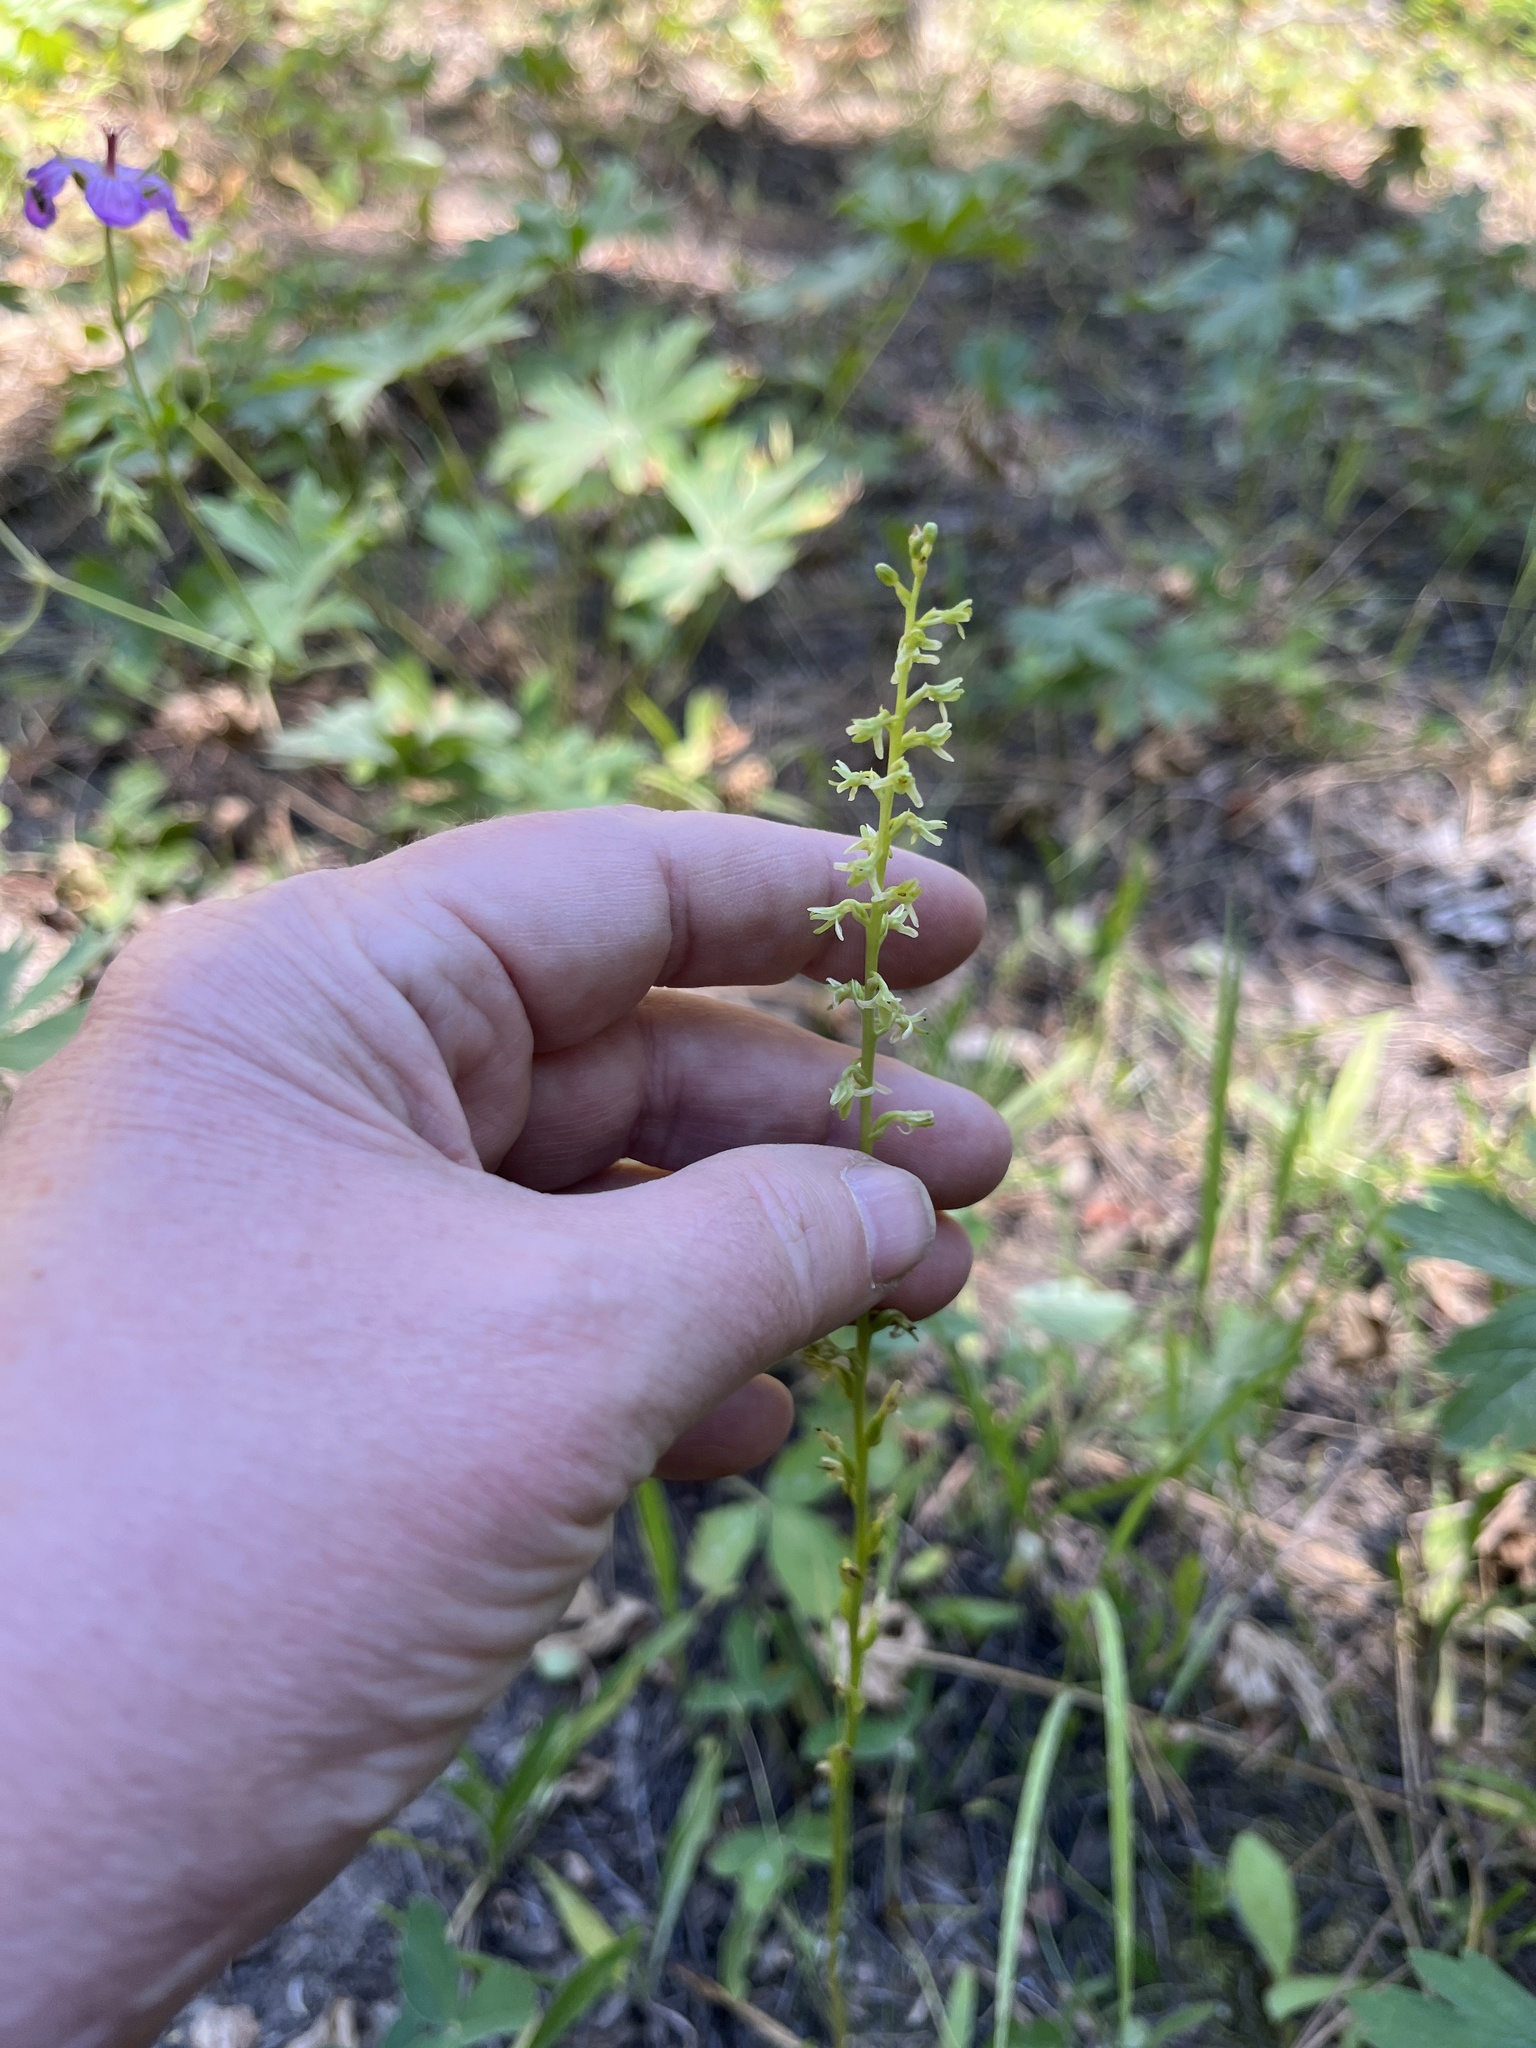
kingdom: Plantae
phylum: Tracheophyta
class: Liliopsida
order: Asparagales
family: Orchidaceae
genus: Platanthera
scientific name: Platanthera unalascensis
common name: Alaska bog orchid
